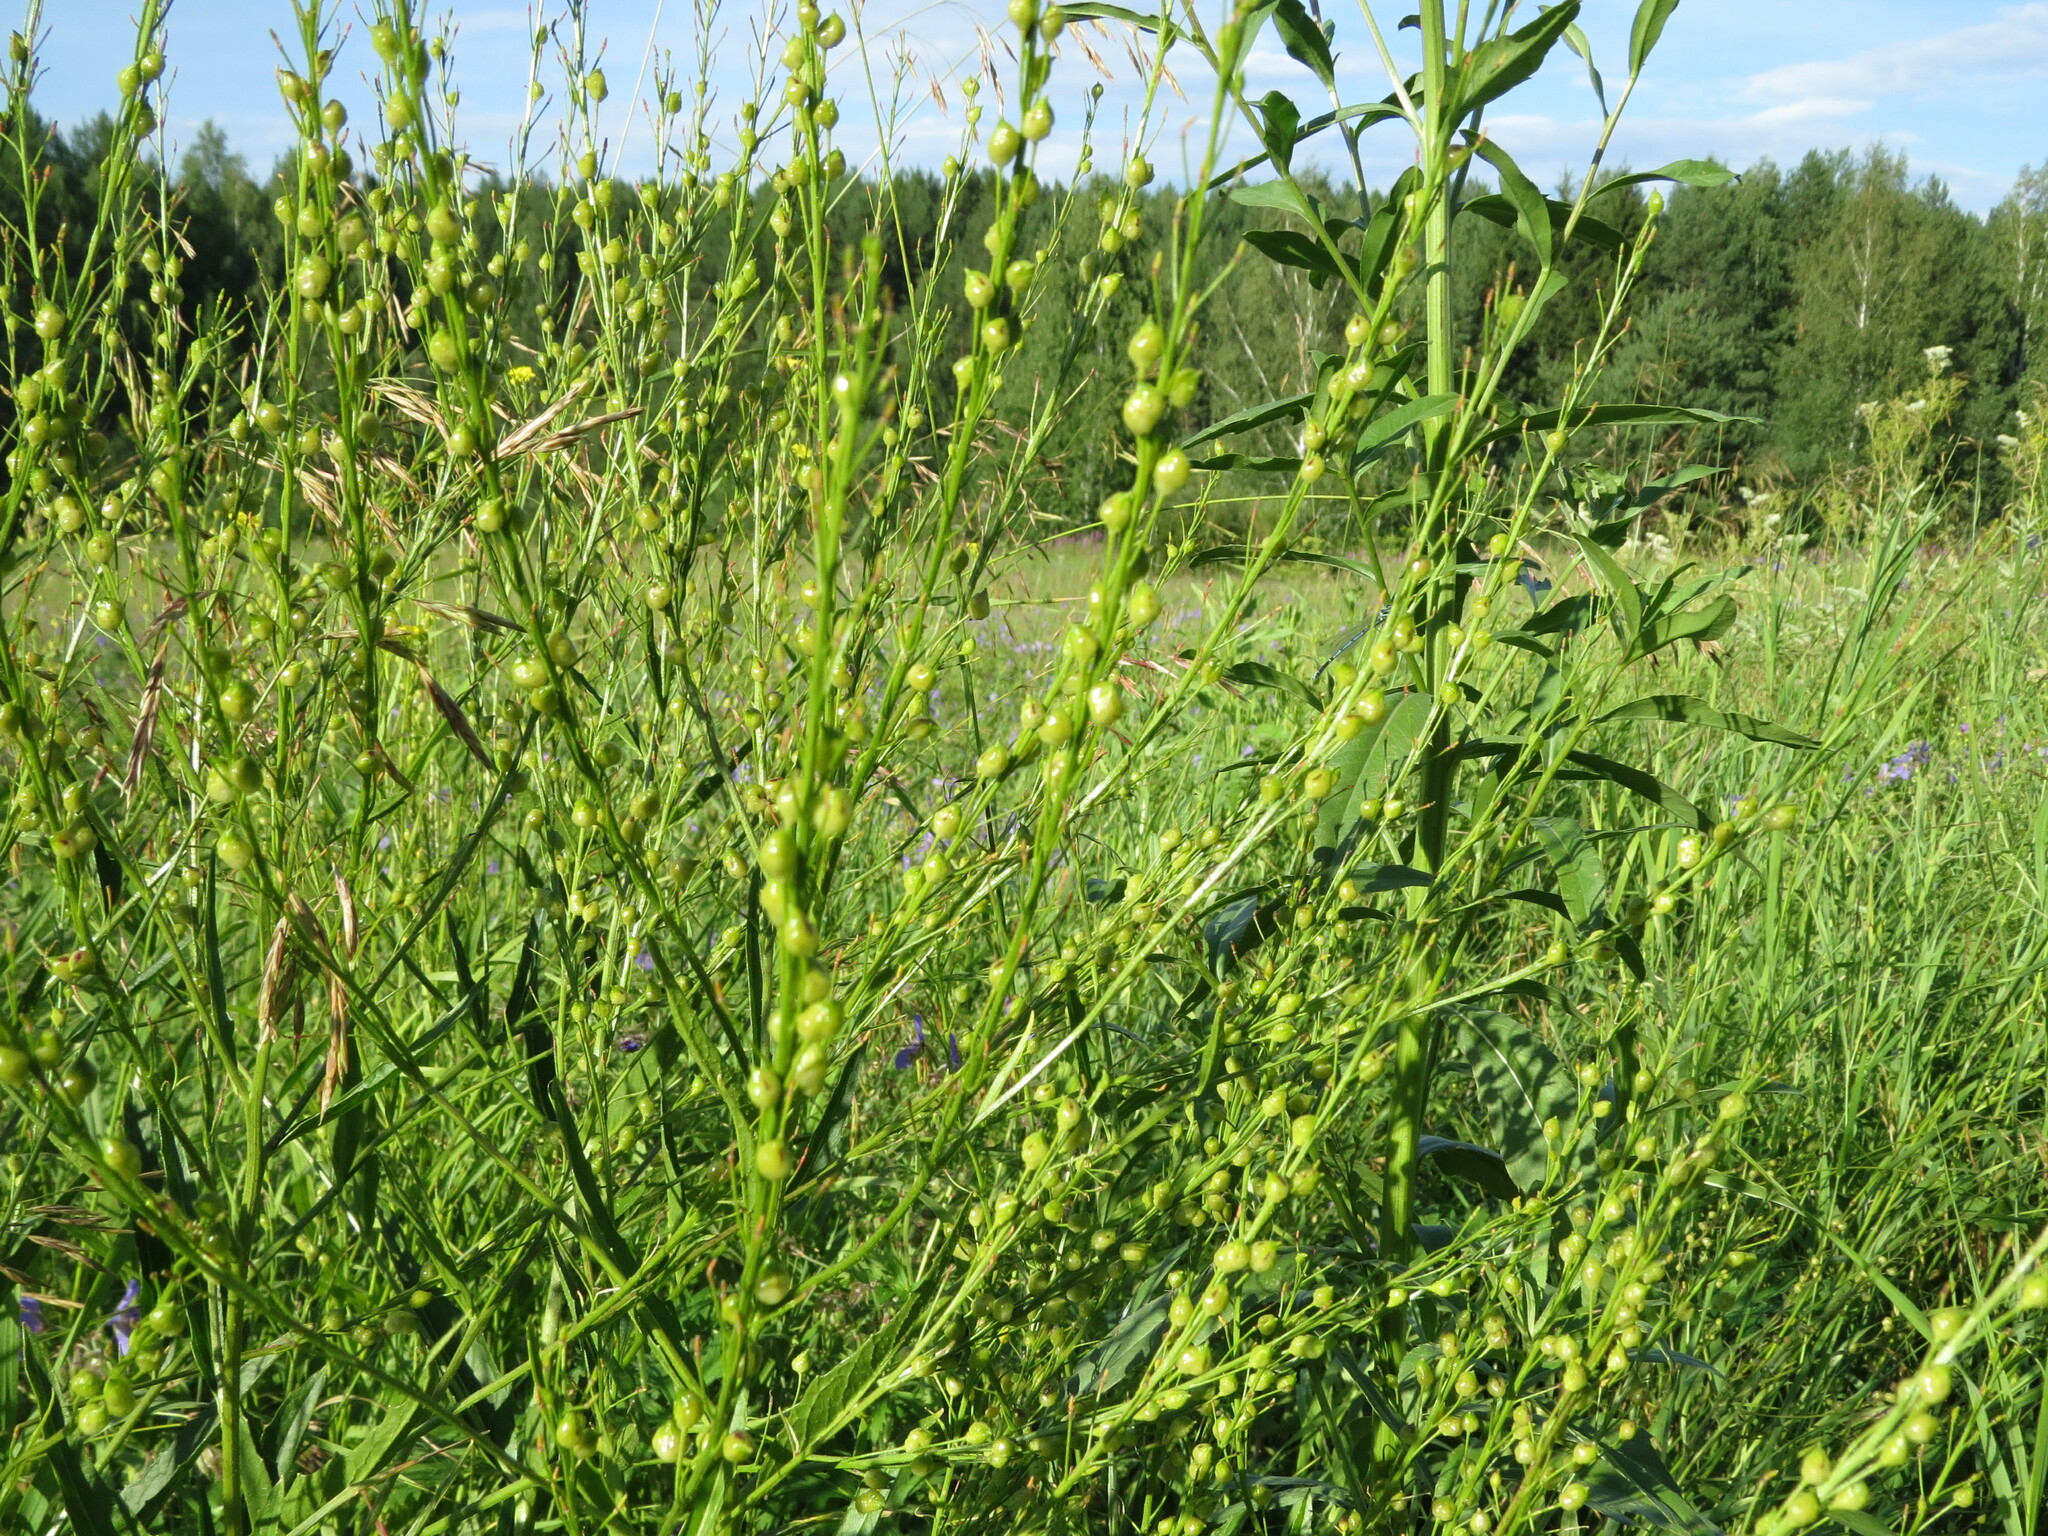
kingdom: Plantae
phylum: Tracheophyta
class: Magnoliopsida
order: Brassicales
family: Brassicaceae
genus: Bunias
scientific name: Bunias orientalis
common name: Warty-cabbage
